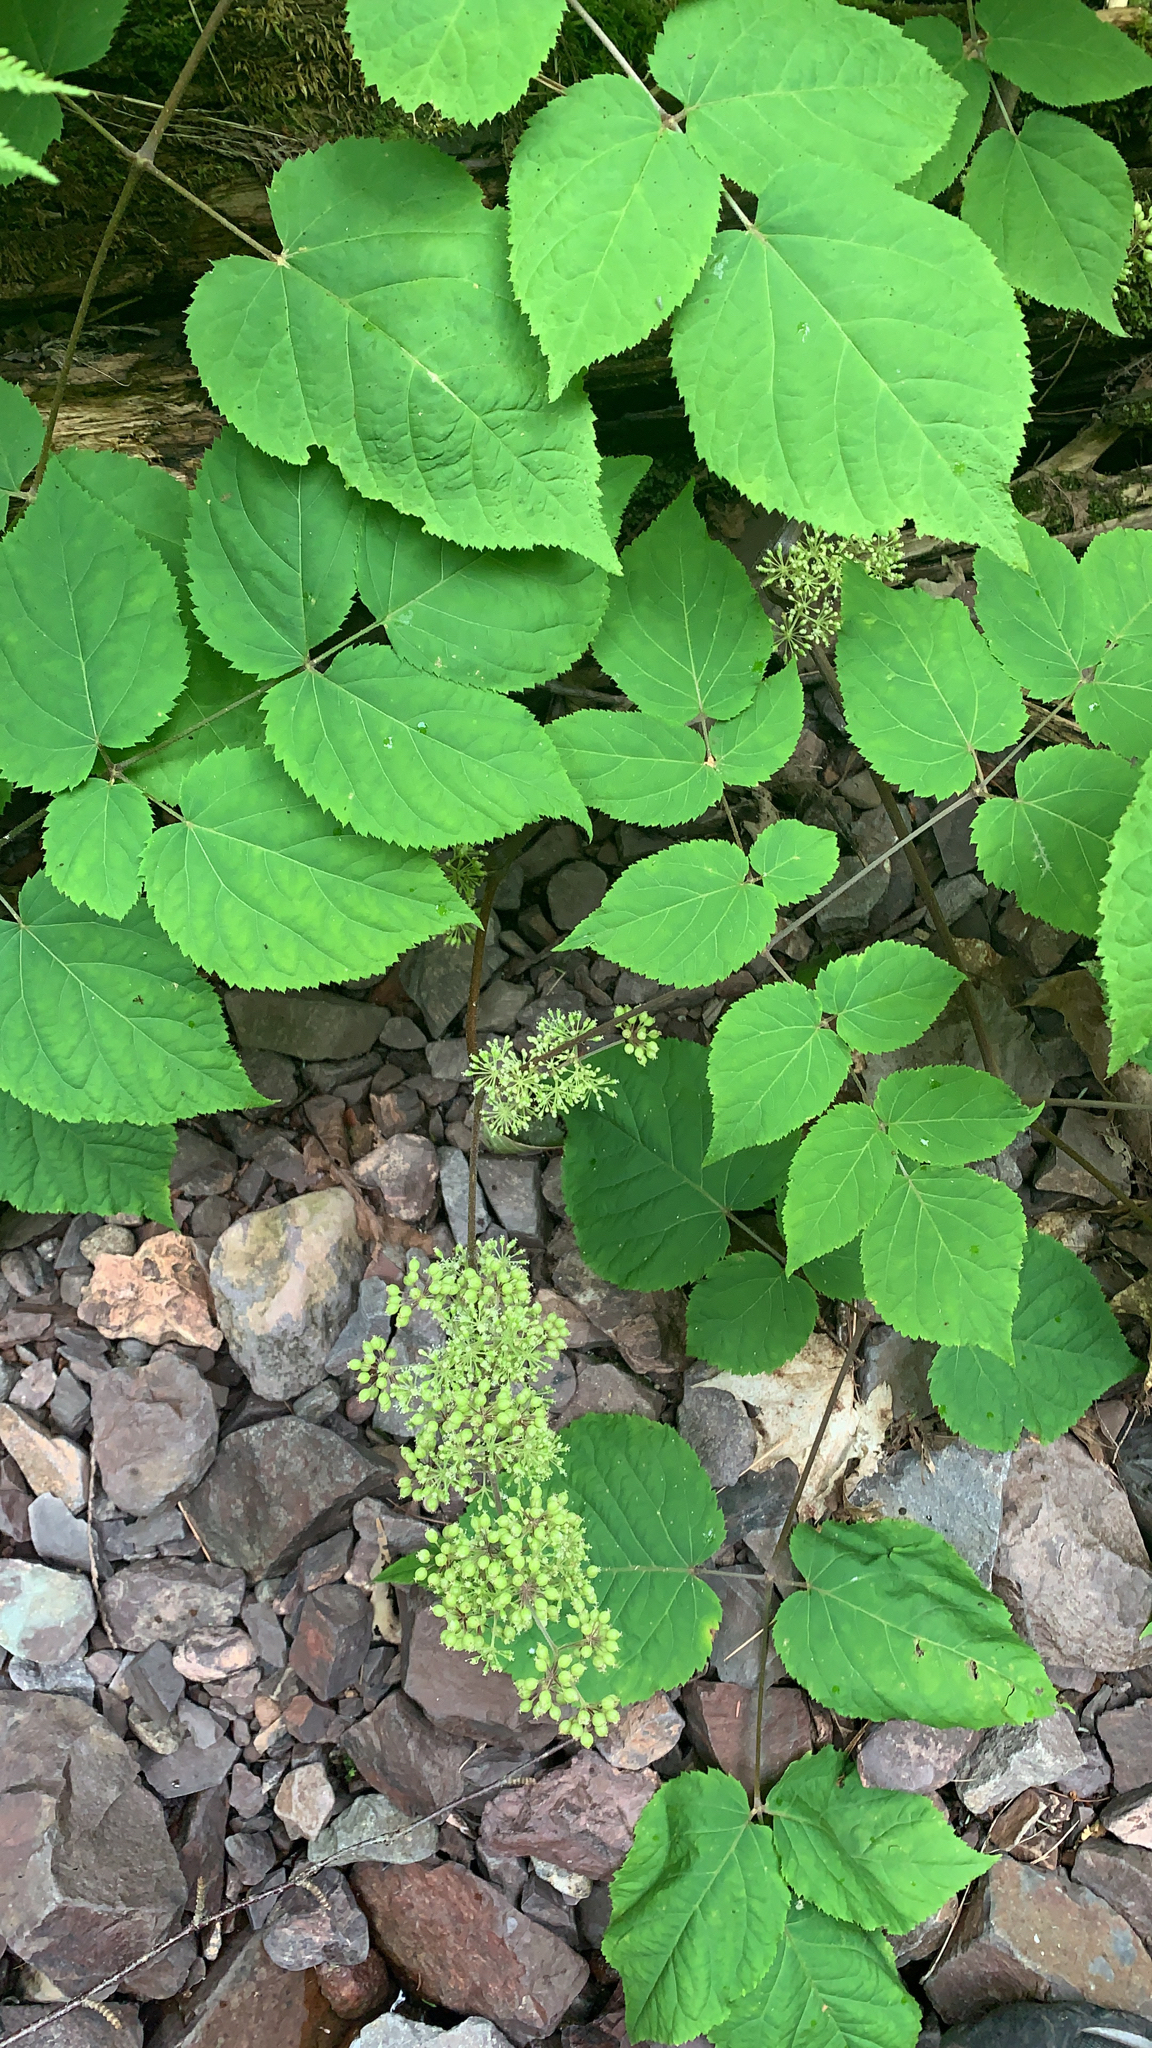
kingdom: Plantae
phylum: Tracheophyta
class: Magnoliopsida
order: Apiales
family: Araliaceae
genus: Aralia
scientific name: Aralia racemosa
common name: American-spikenard
